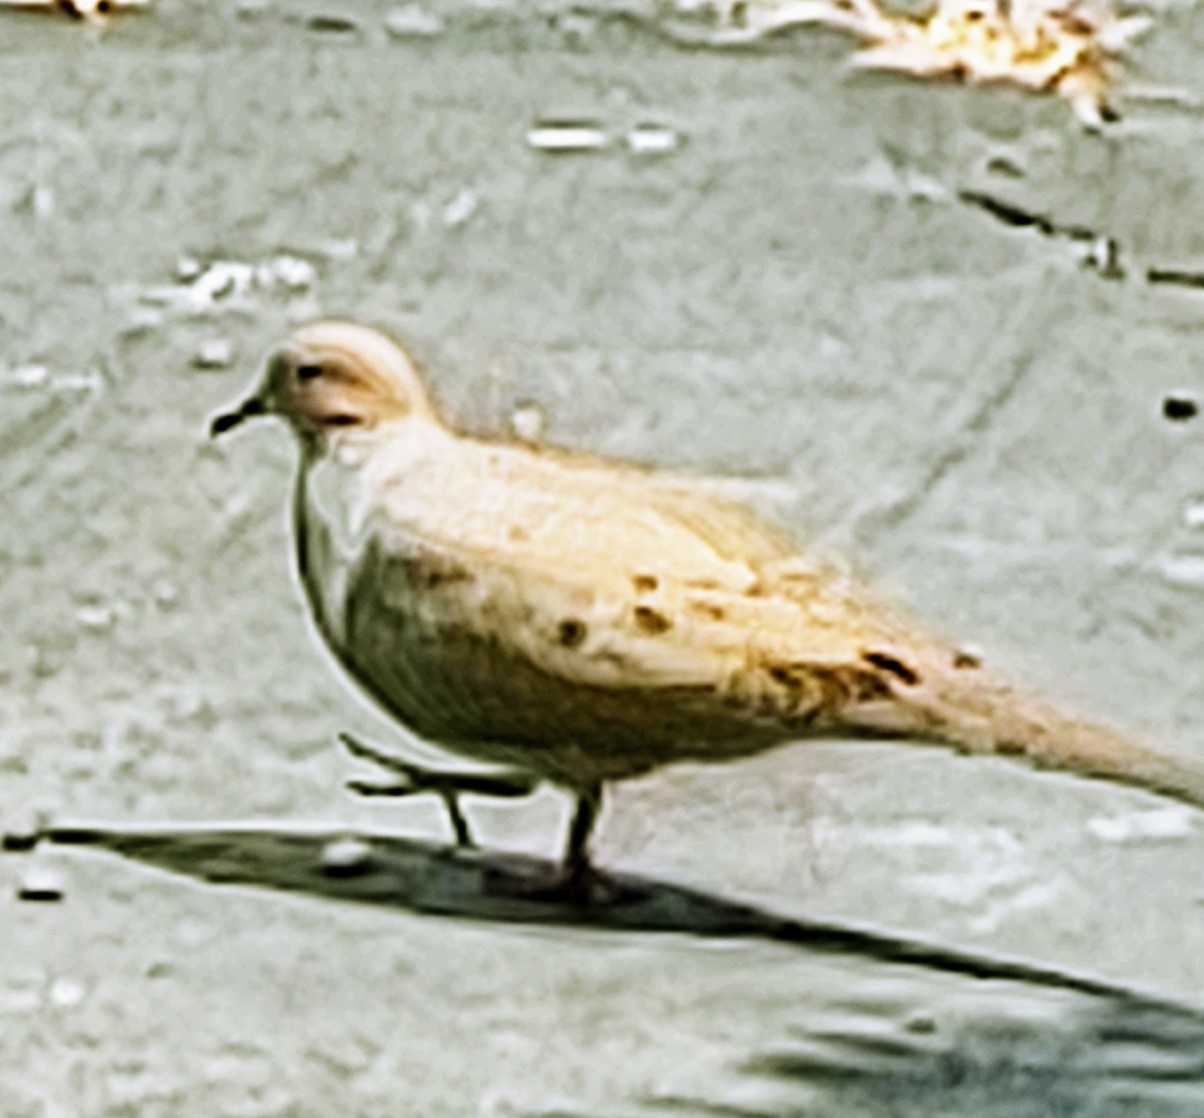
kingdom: Animalia
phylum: Chordata
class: Aves
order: Columbiformes
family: Columbidae
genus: Zenaida
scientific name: Zenaida macroura
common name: Mourning dove
